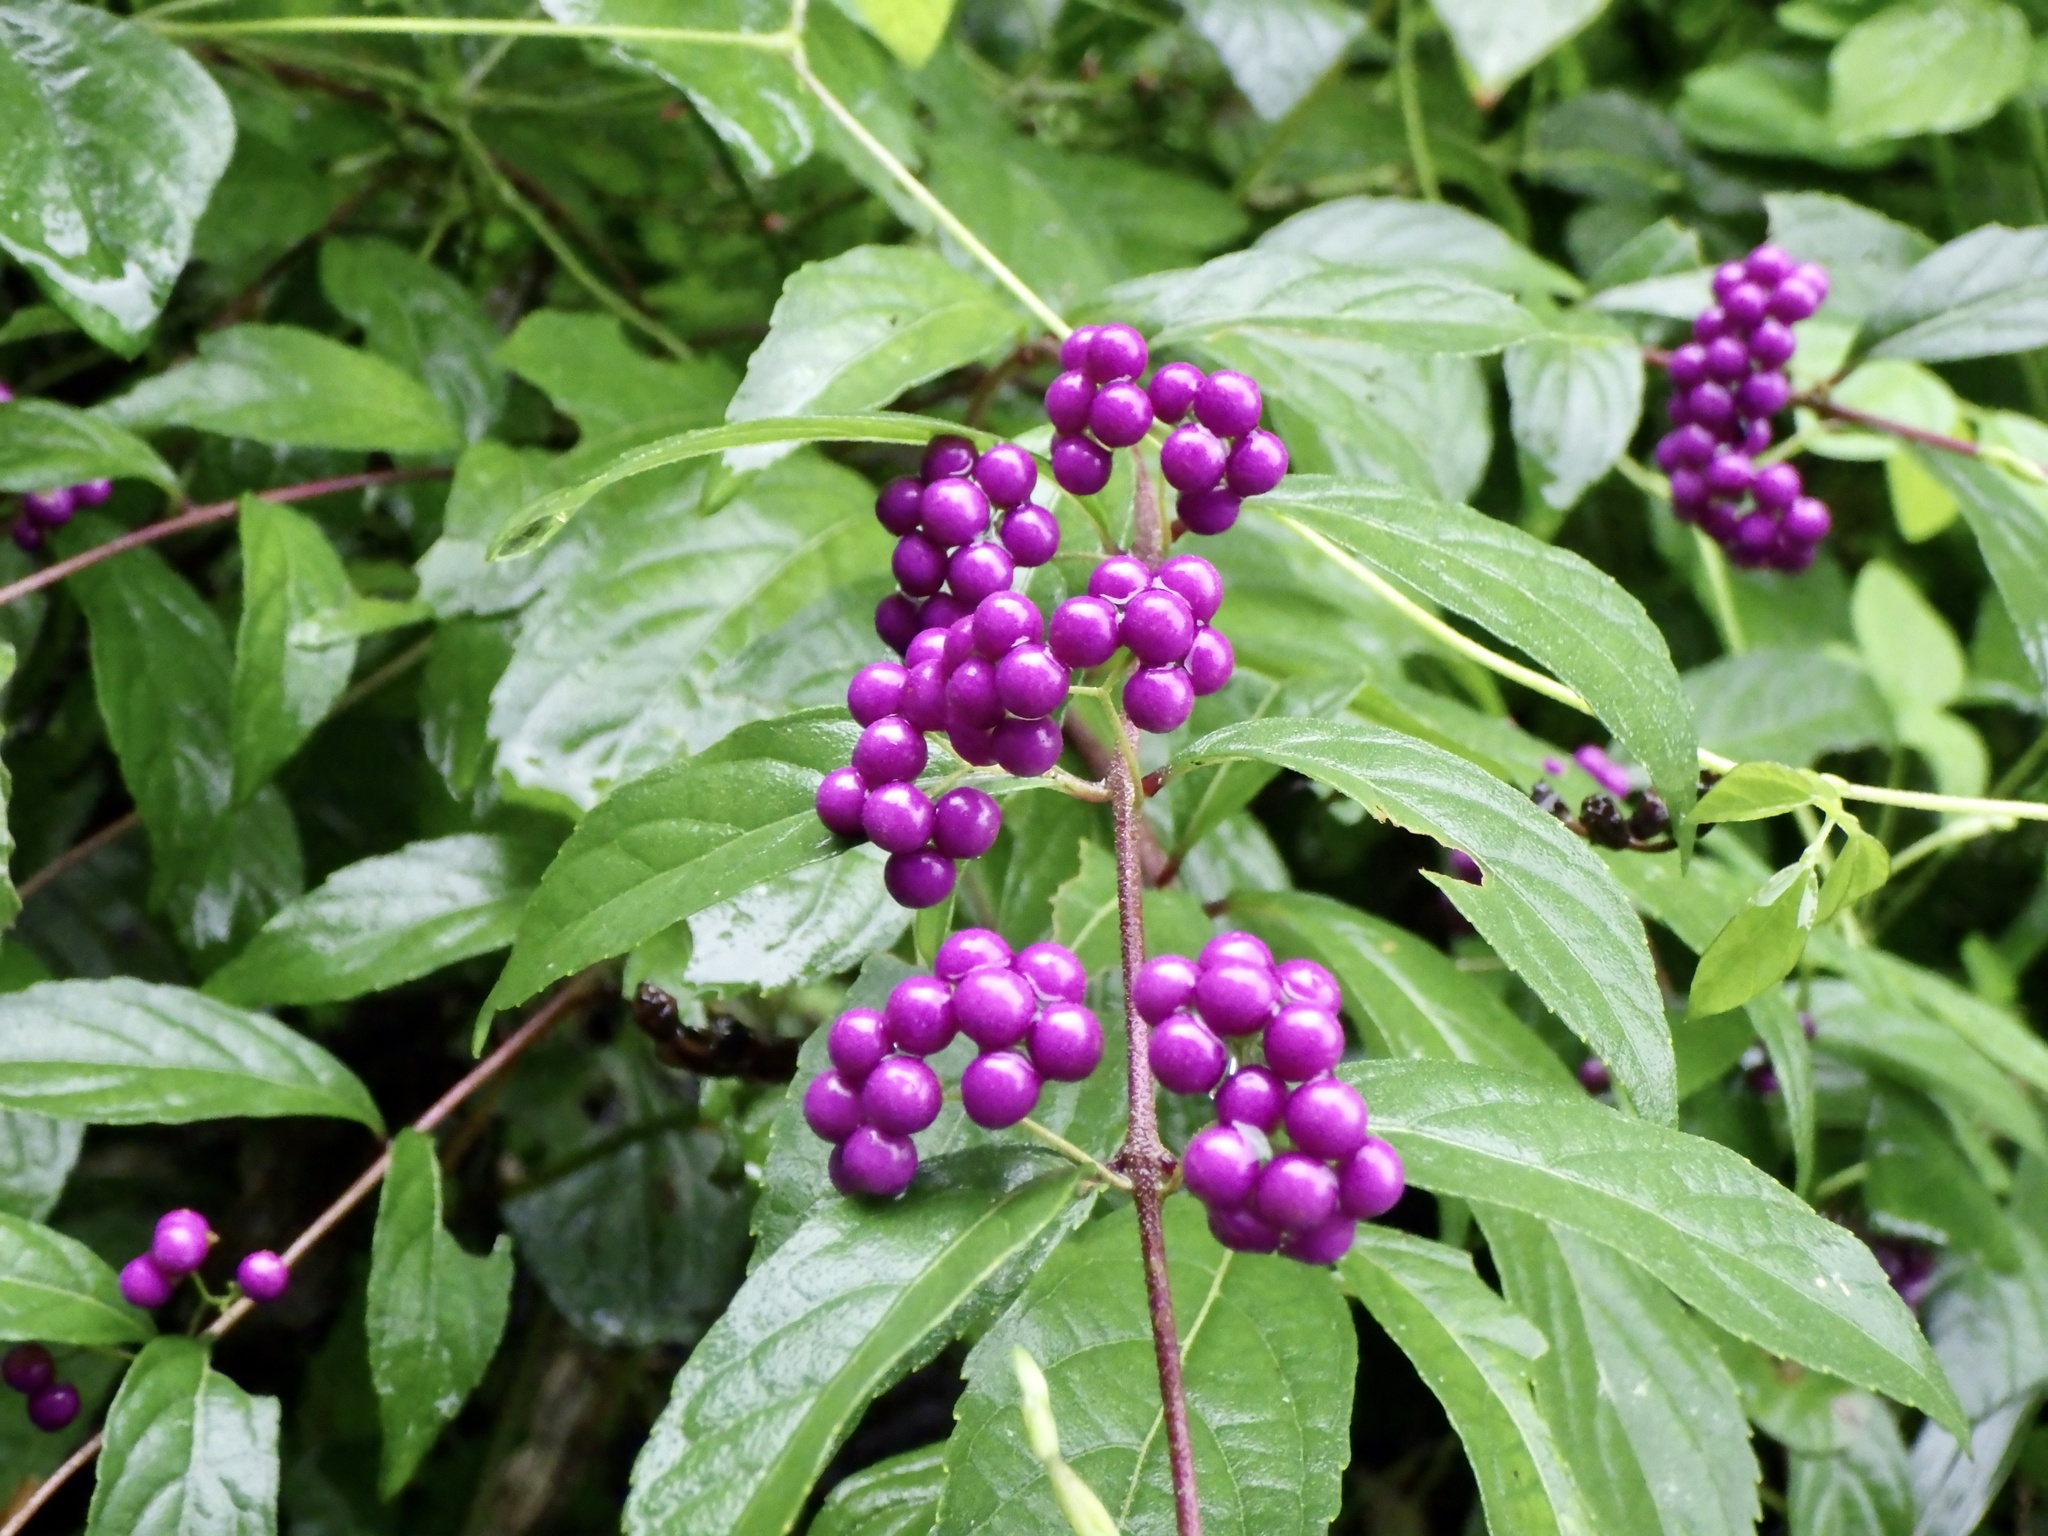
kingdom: Plantae
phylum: Tracheophyta
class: Magnoliopsida
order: Lamiales
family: Lamiaceae
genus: Callicarpa
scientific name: Callicarpa dichotoma
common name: Purple beauty-berry
